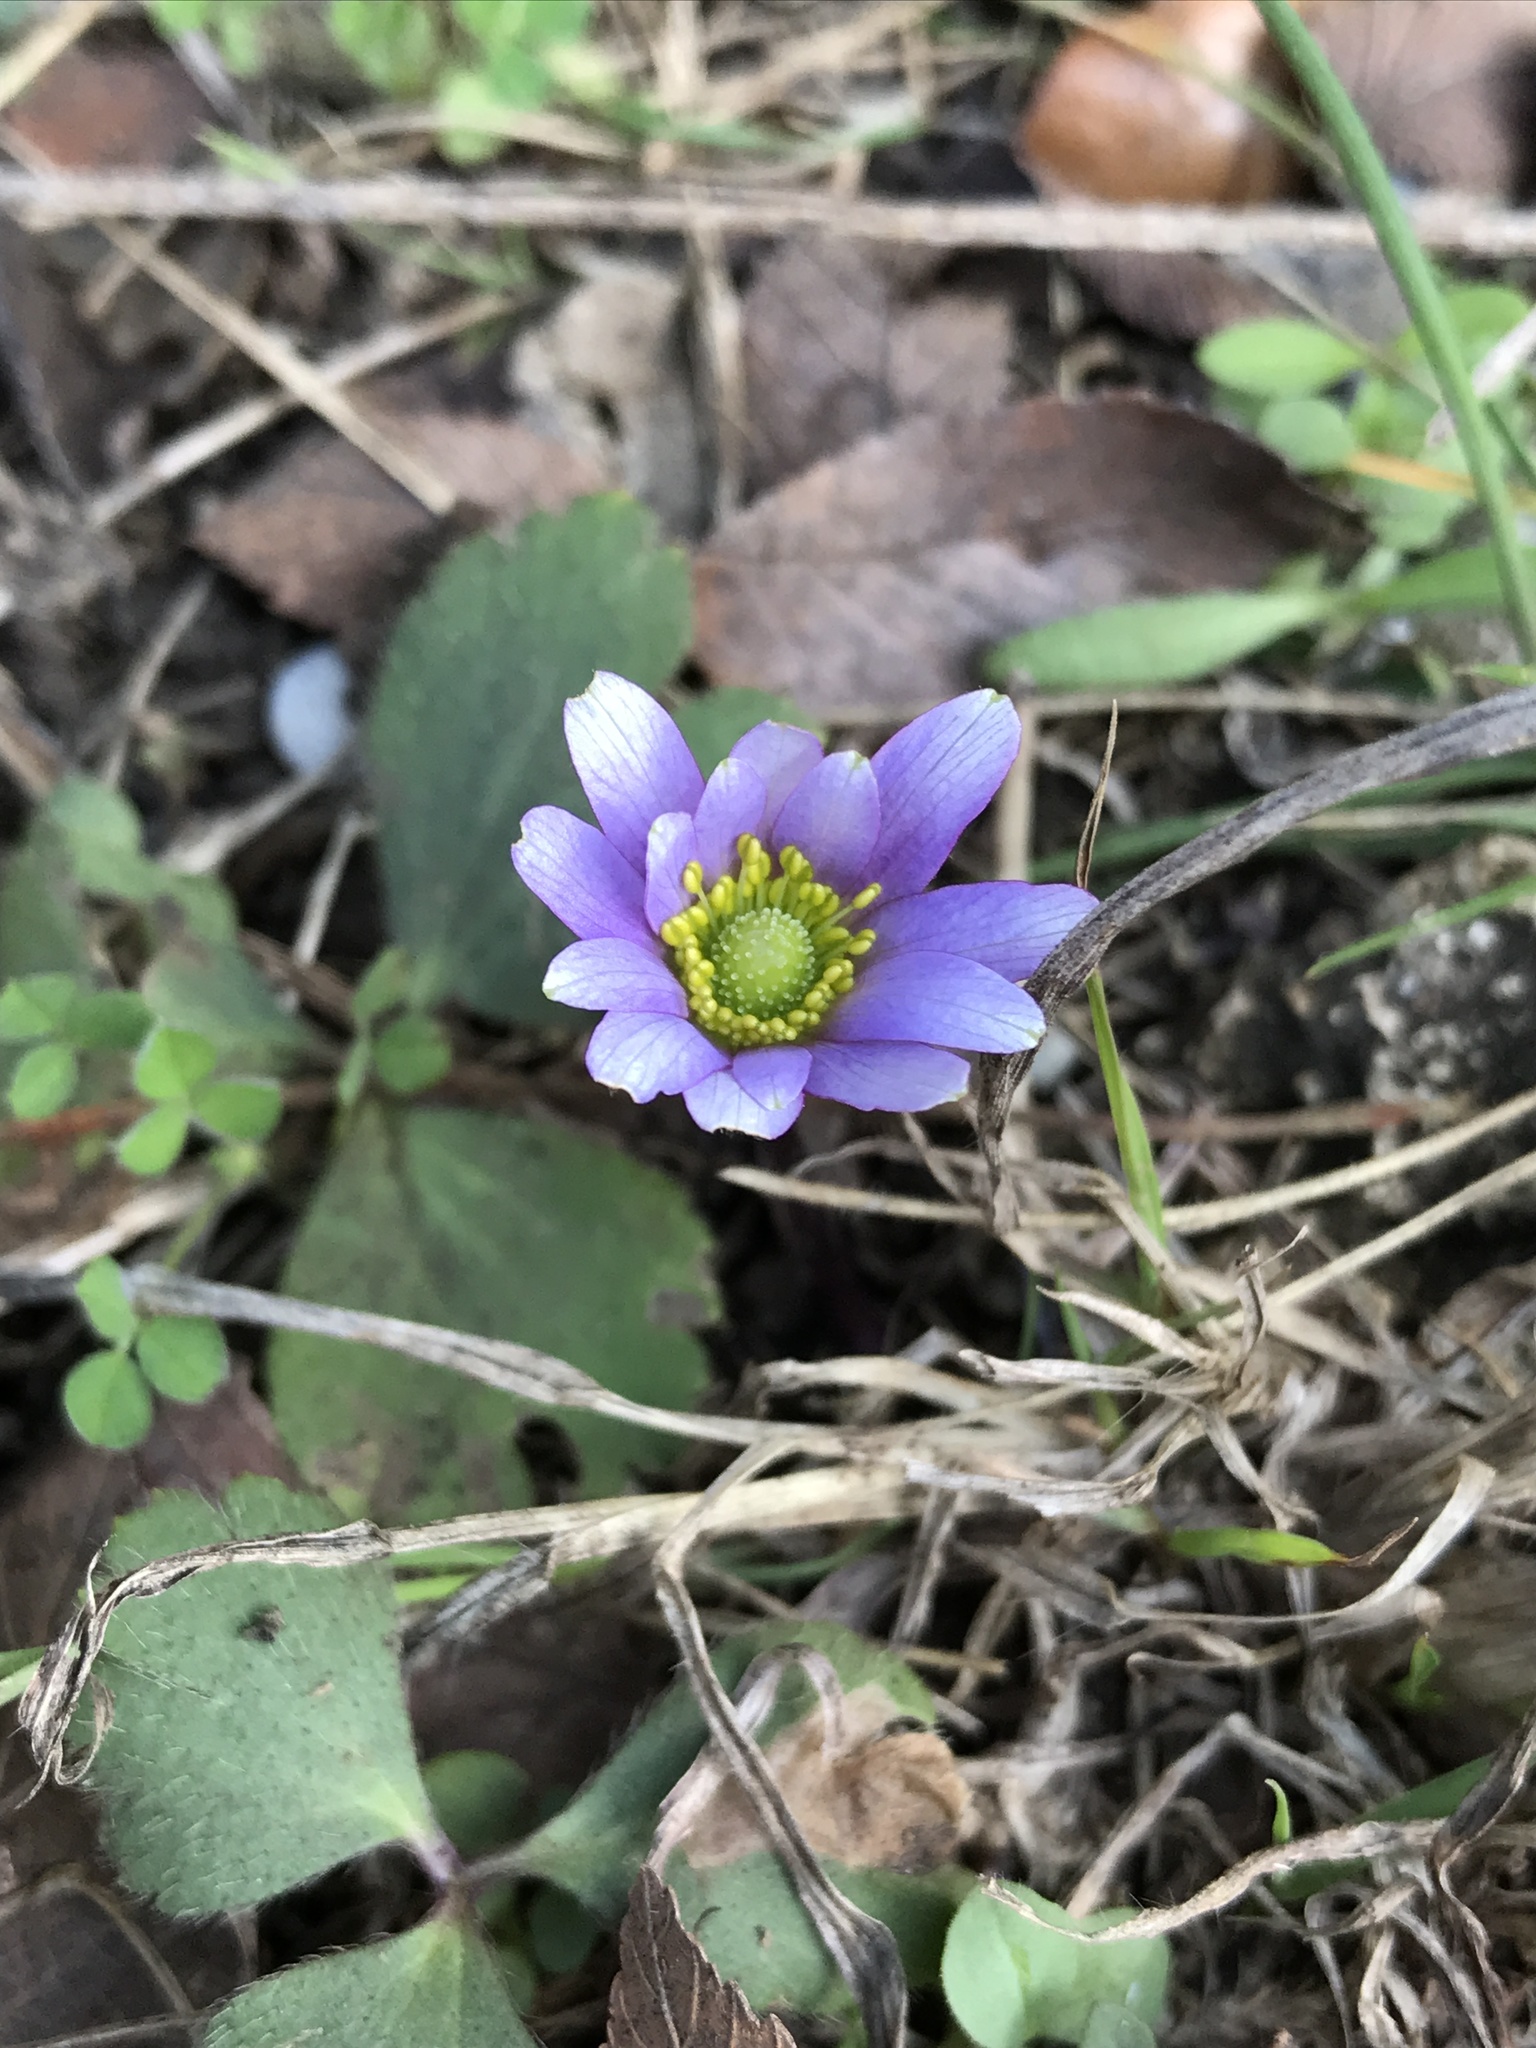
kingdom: Plantae
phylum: Tracheophyta
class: Magnoliopsida
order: Ranunculales
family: Ranunculaceae
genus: Anemone
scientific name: Anemone berlandieri
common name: Ten-petal anemone
